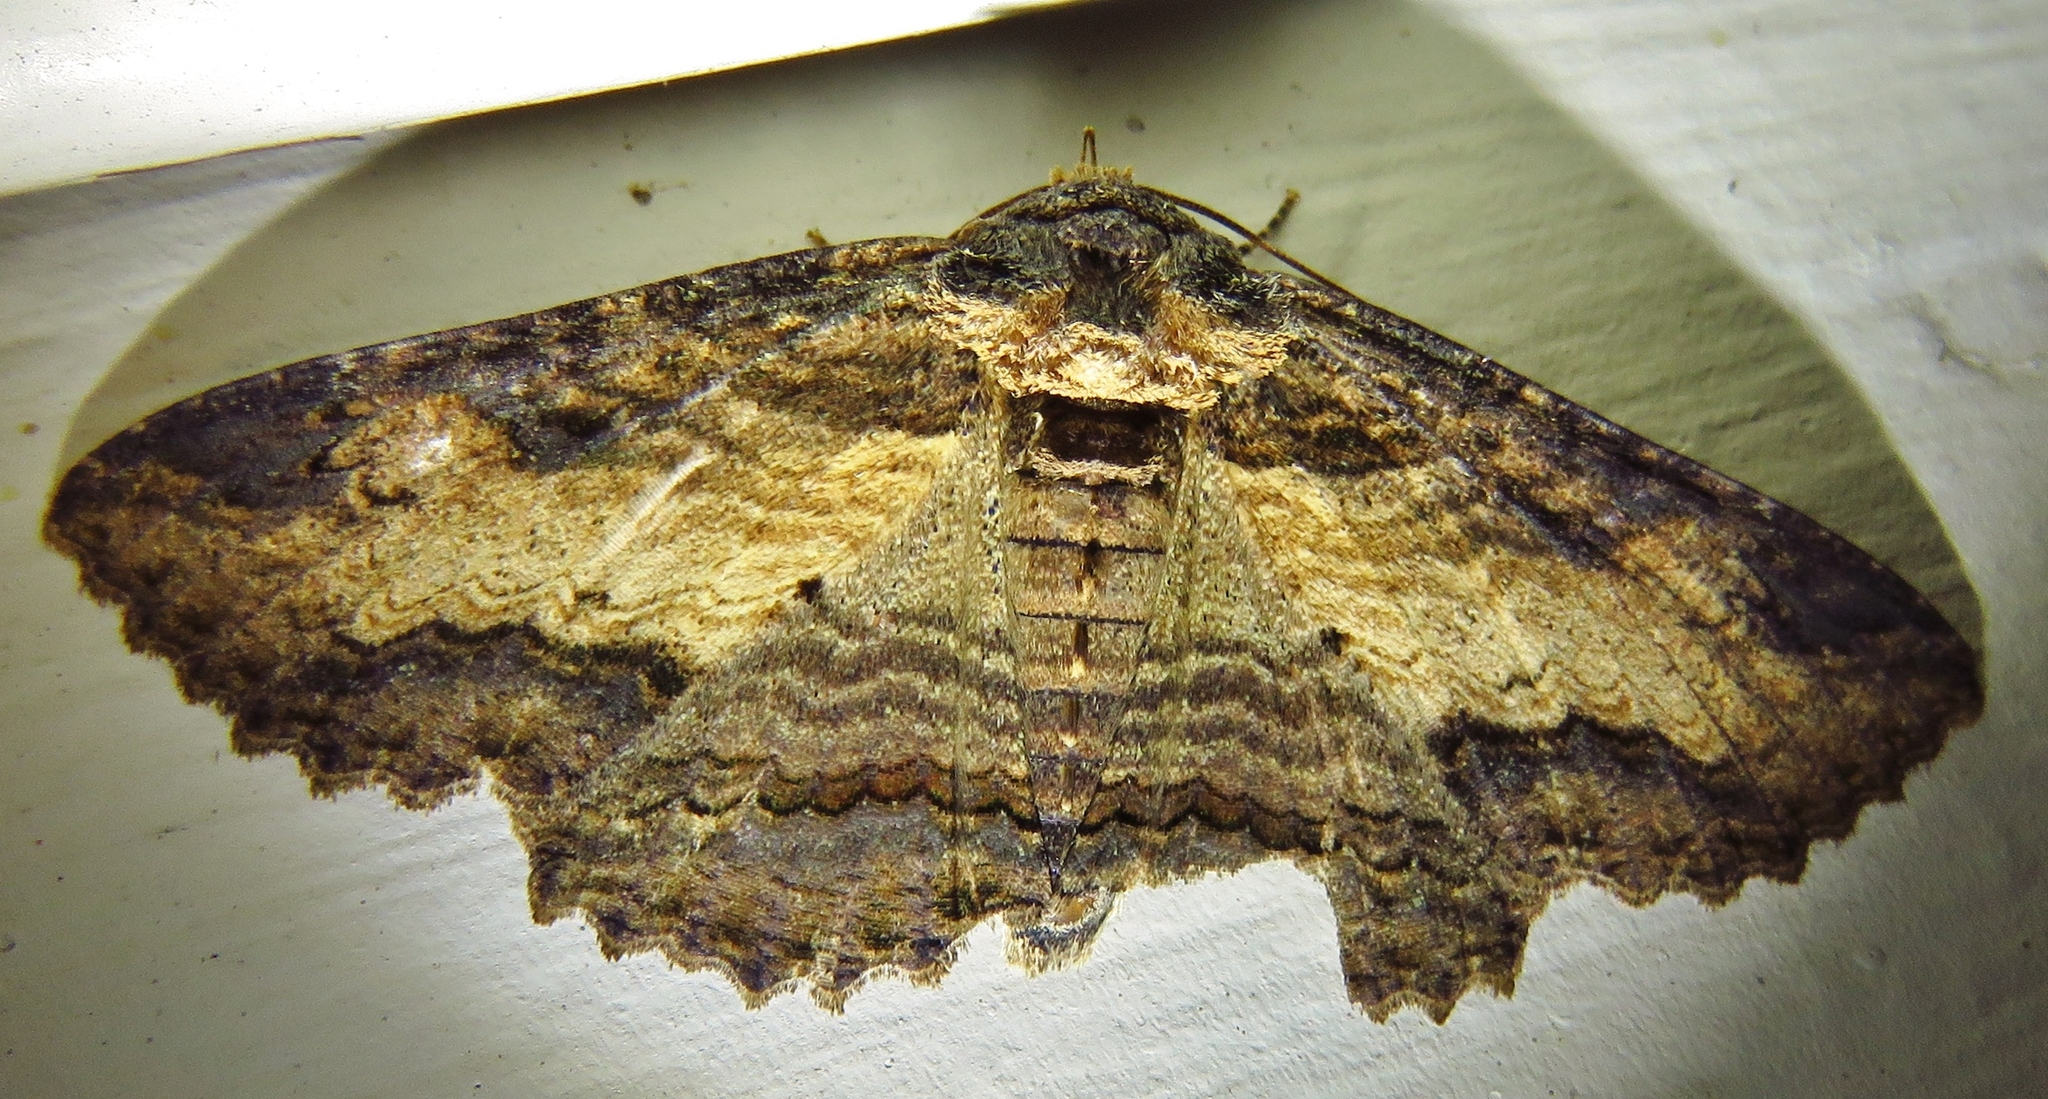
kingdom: Animalia
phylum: Arthropoda
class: Insecta
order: Lepidoptera
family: Erebidae
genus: Zale
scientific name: Zale lunata
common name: Lunate zale moth
